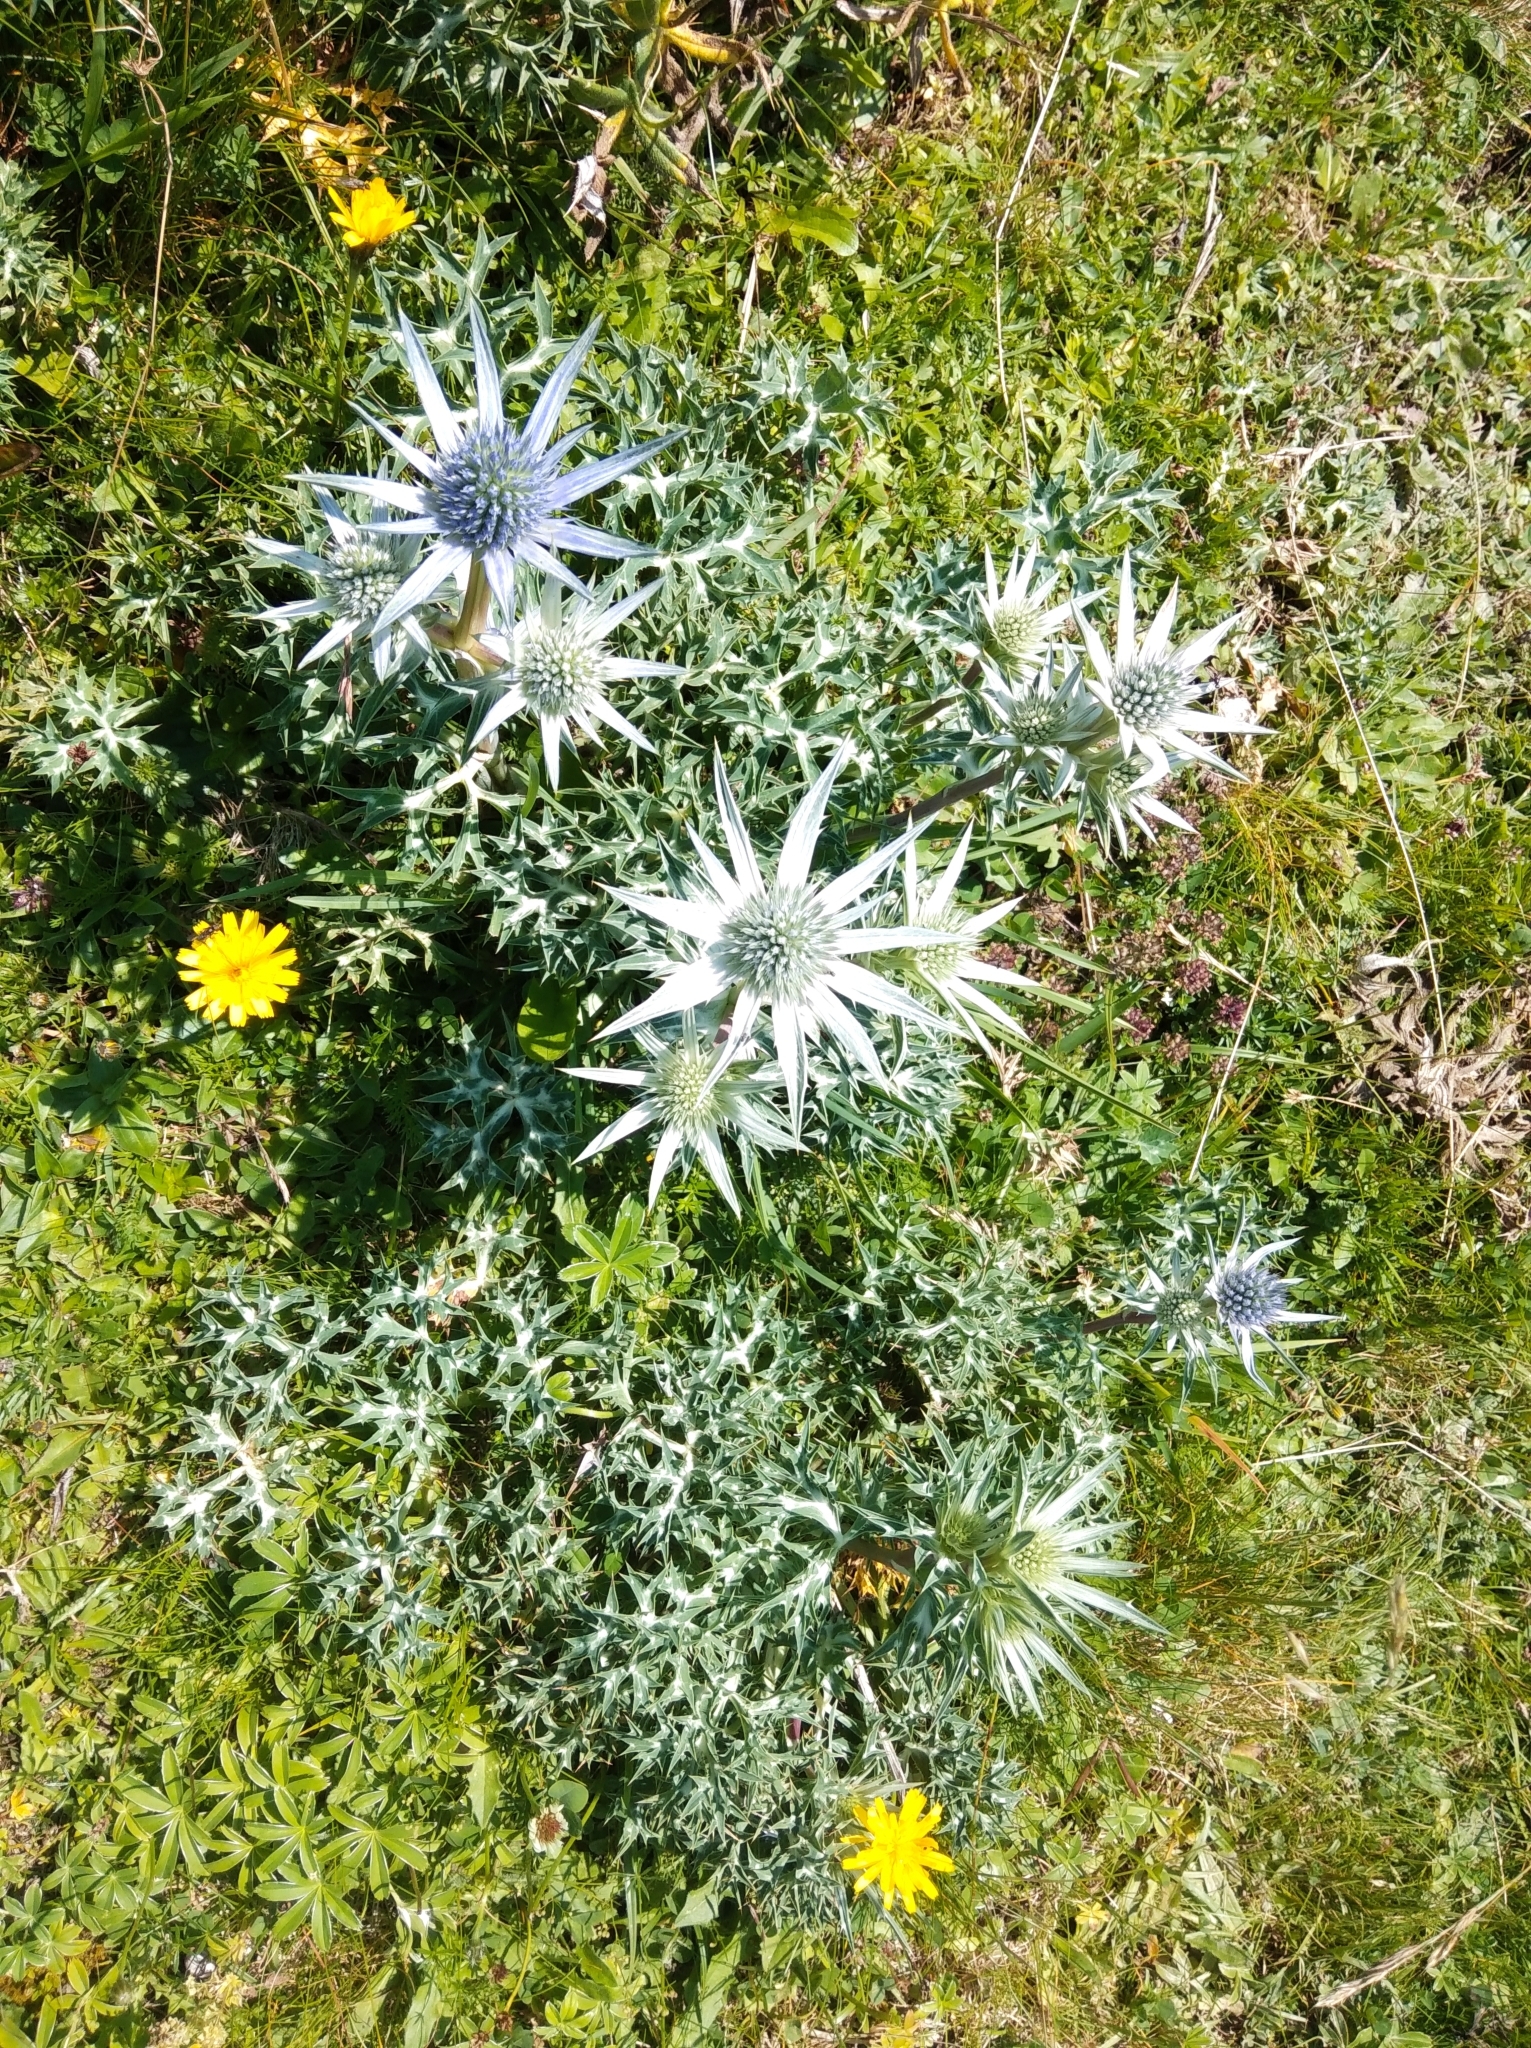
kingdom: Plantae
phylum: Tracheophyta
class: Magnoliopsida
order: Apiales
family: Apiaceae
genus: Eryngium
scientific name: Eryngium bourgatii
